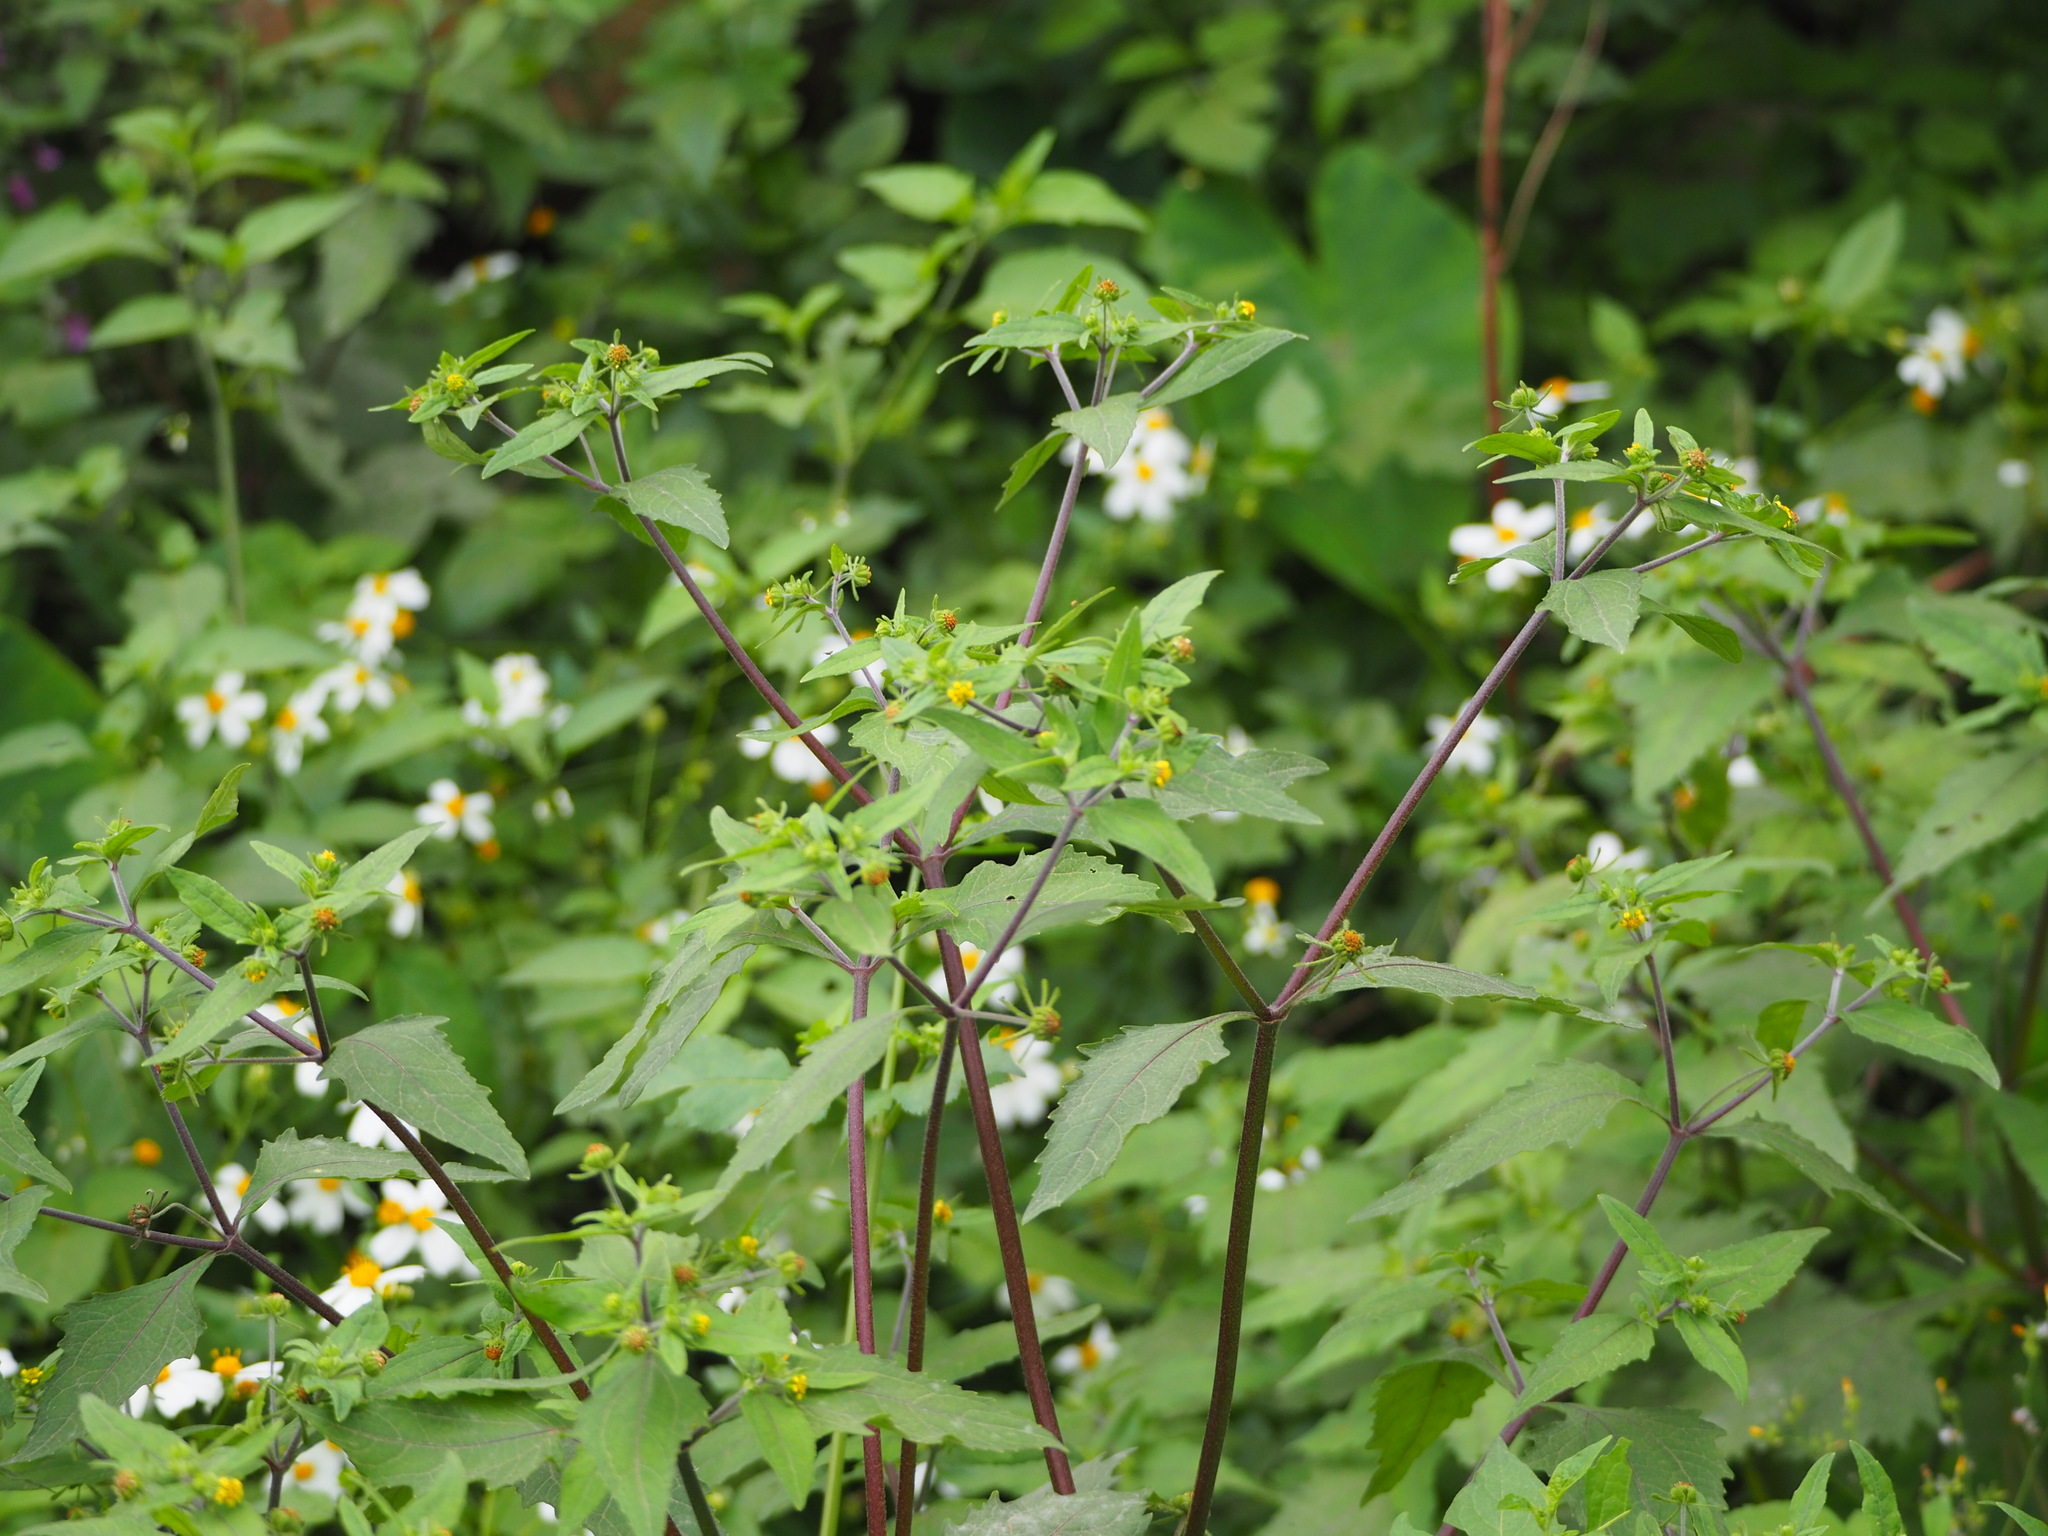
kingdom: Plantae
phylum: Tracheophyta
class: Magnoliopsida
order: Asterales
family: Asteraceae
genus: Sigesbeckia
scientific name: Sigesbeckia orientalis
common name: Eastern st paul's-wort
